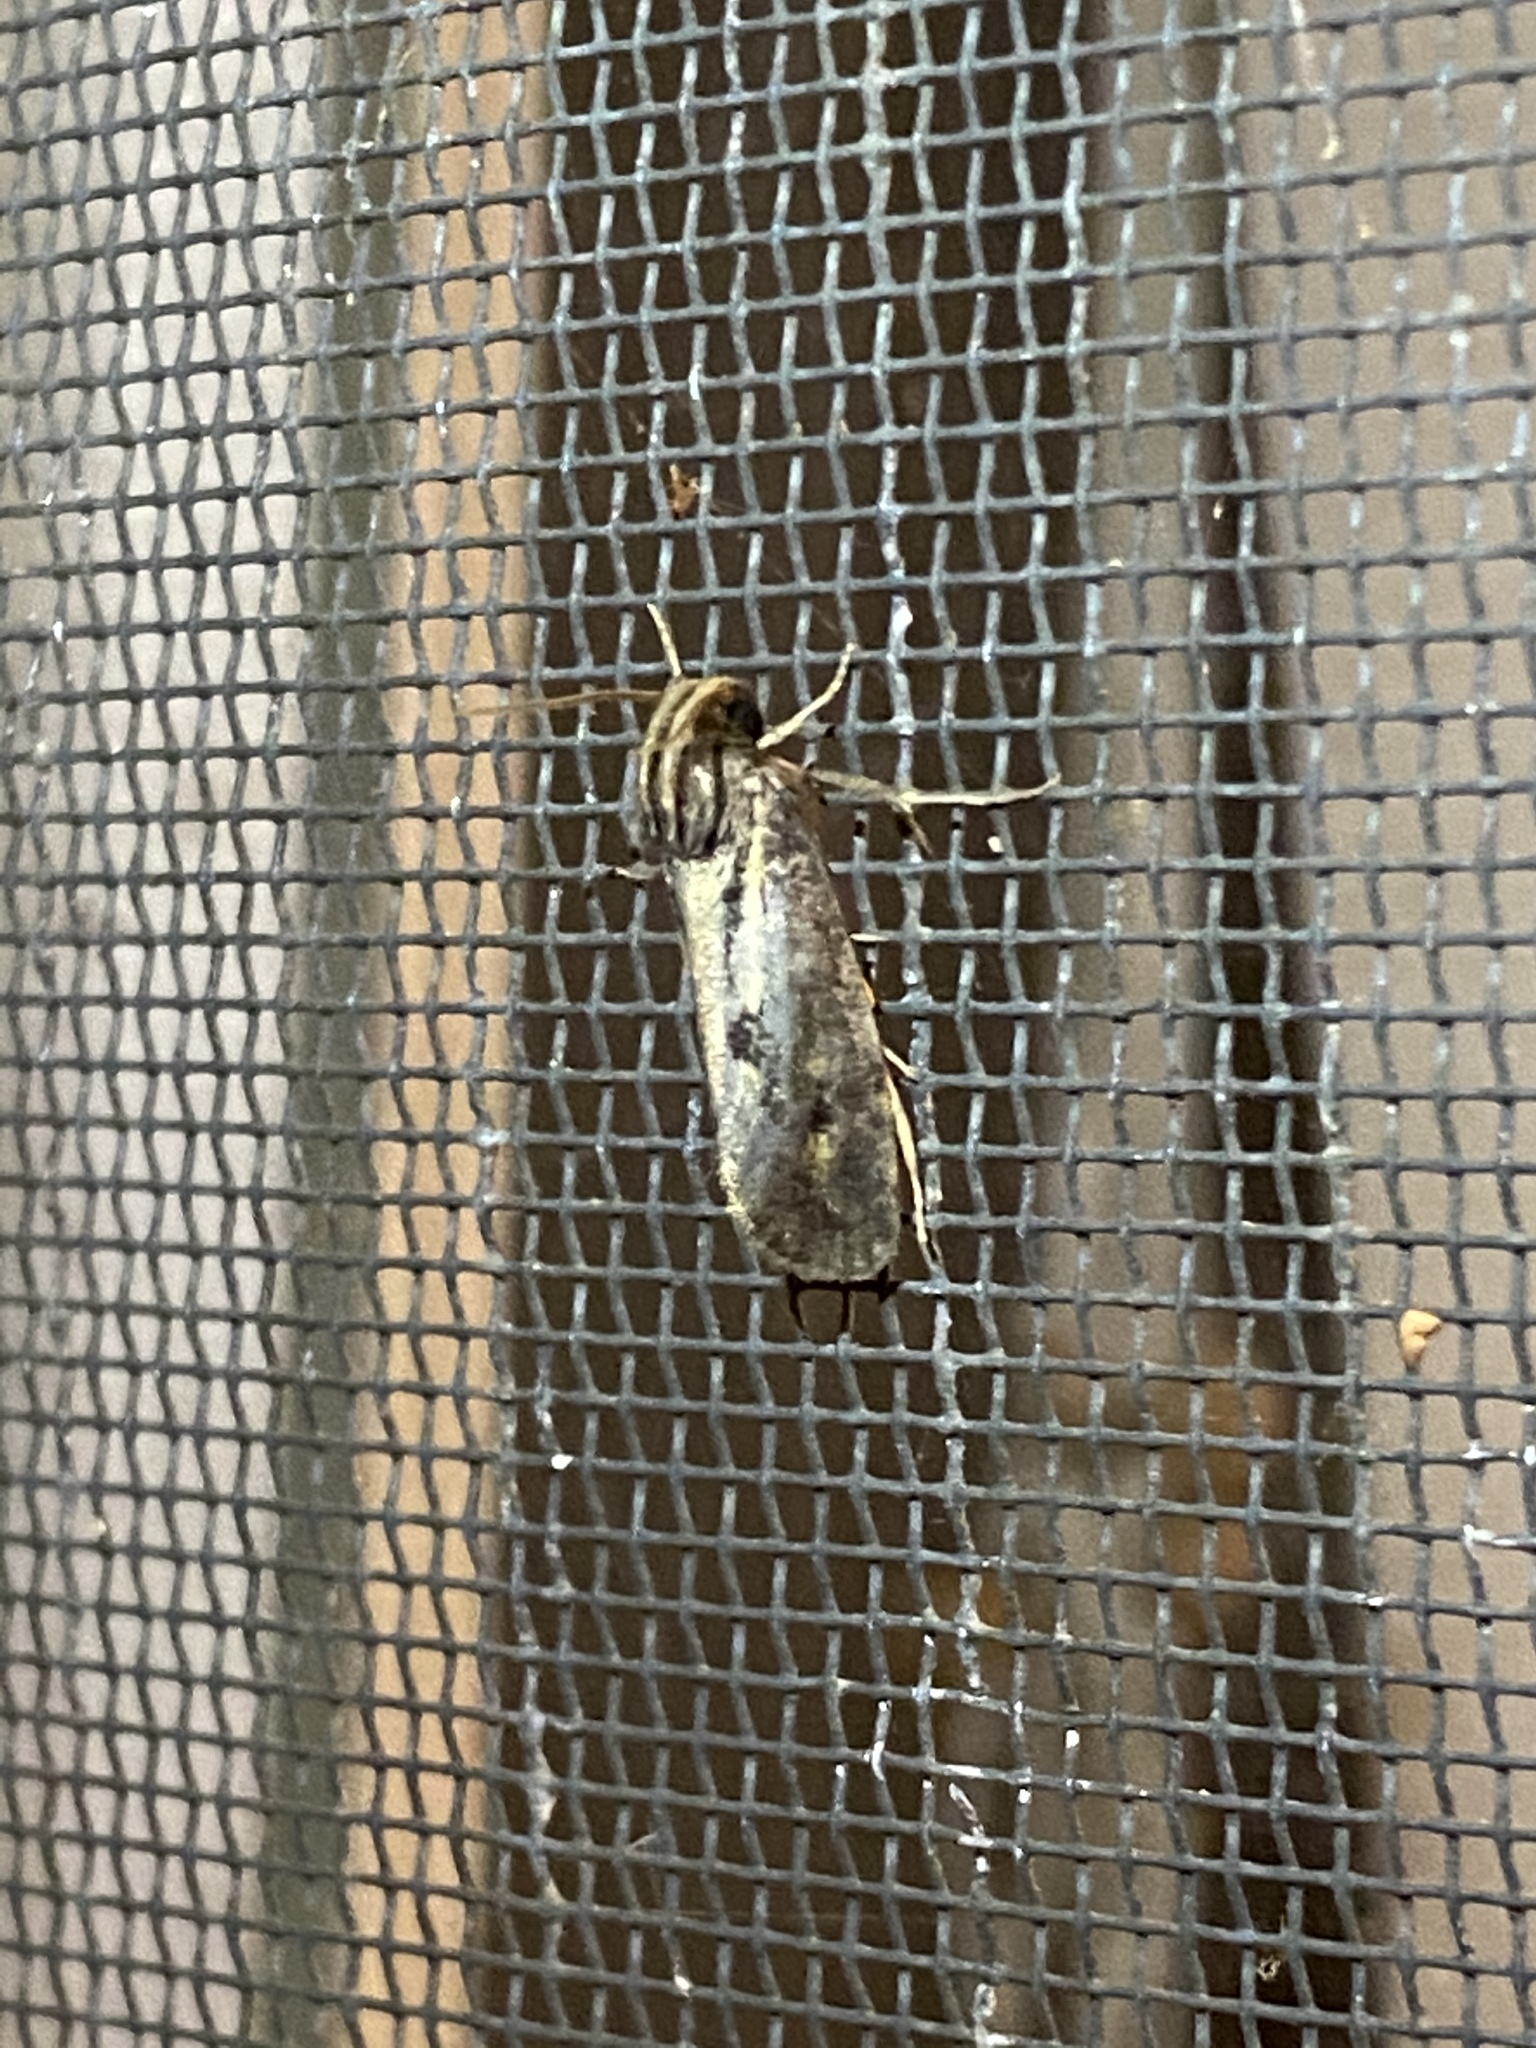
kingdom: Animalia
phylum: Arthropoda
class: Insecta
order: Lepidoptera
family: Tineidae
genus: Acrolophus
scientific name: Acrolophus popeanella
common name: Clemens' grass tubeworm moth
